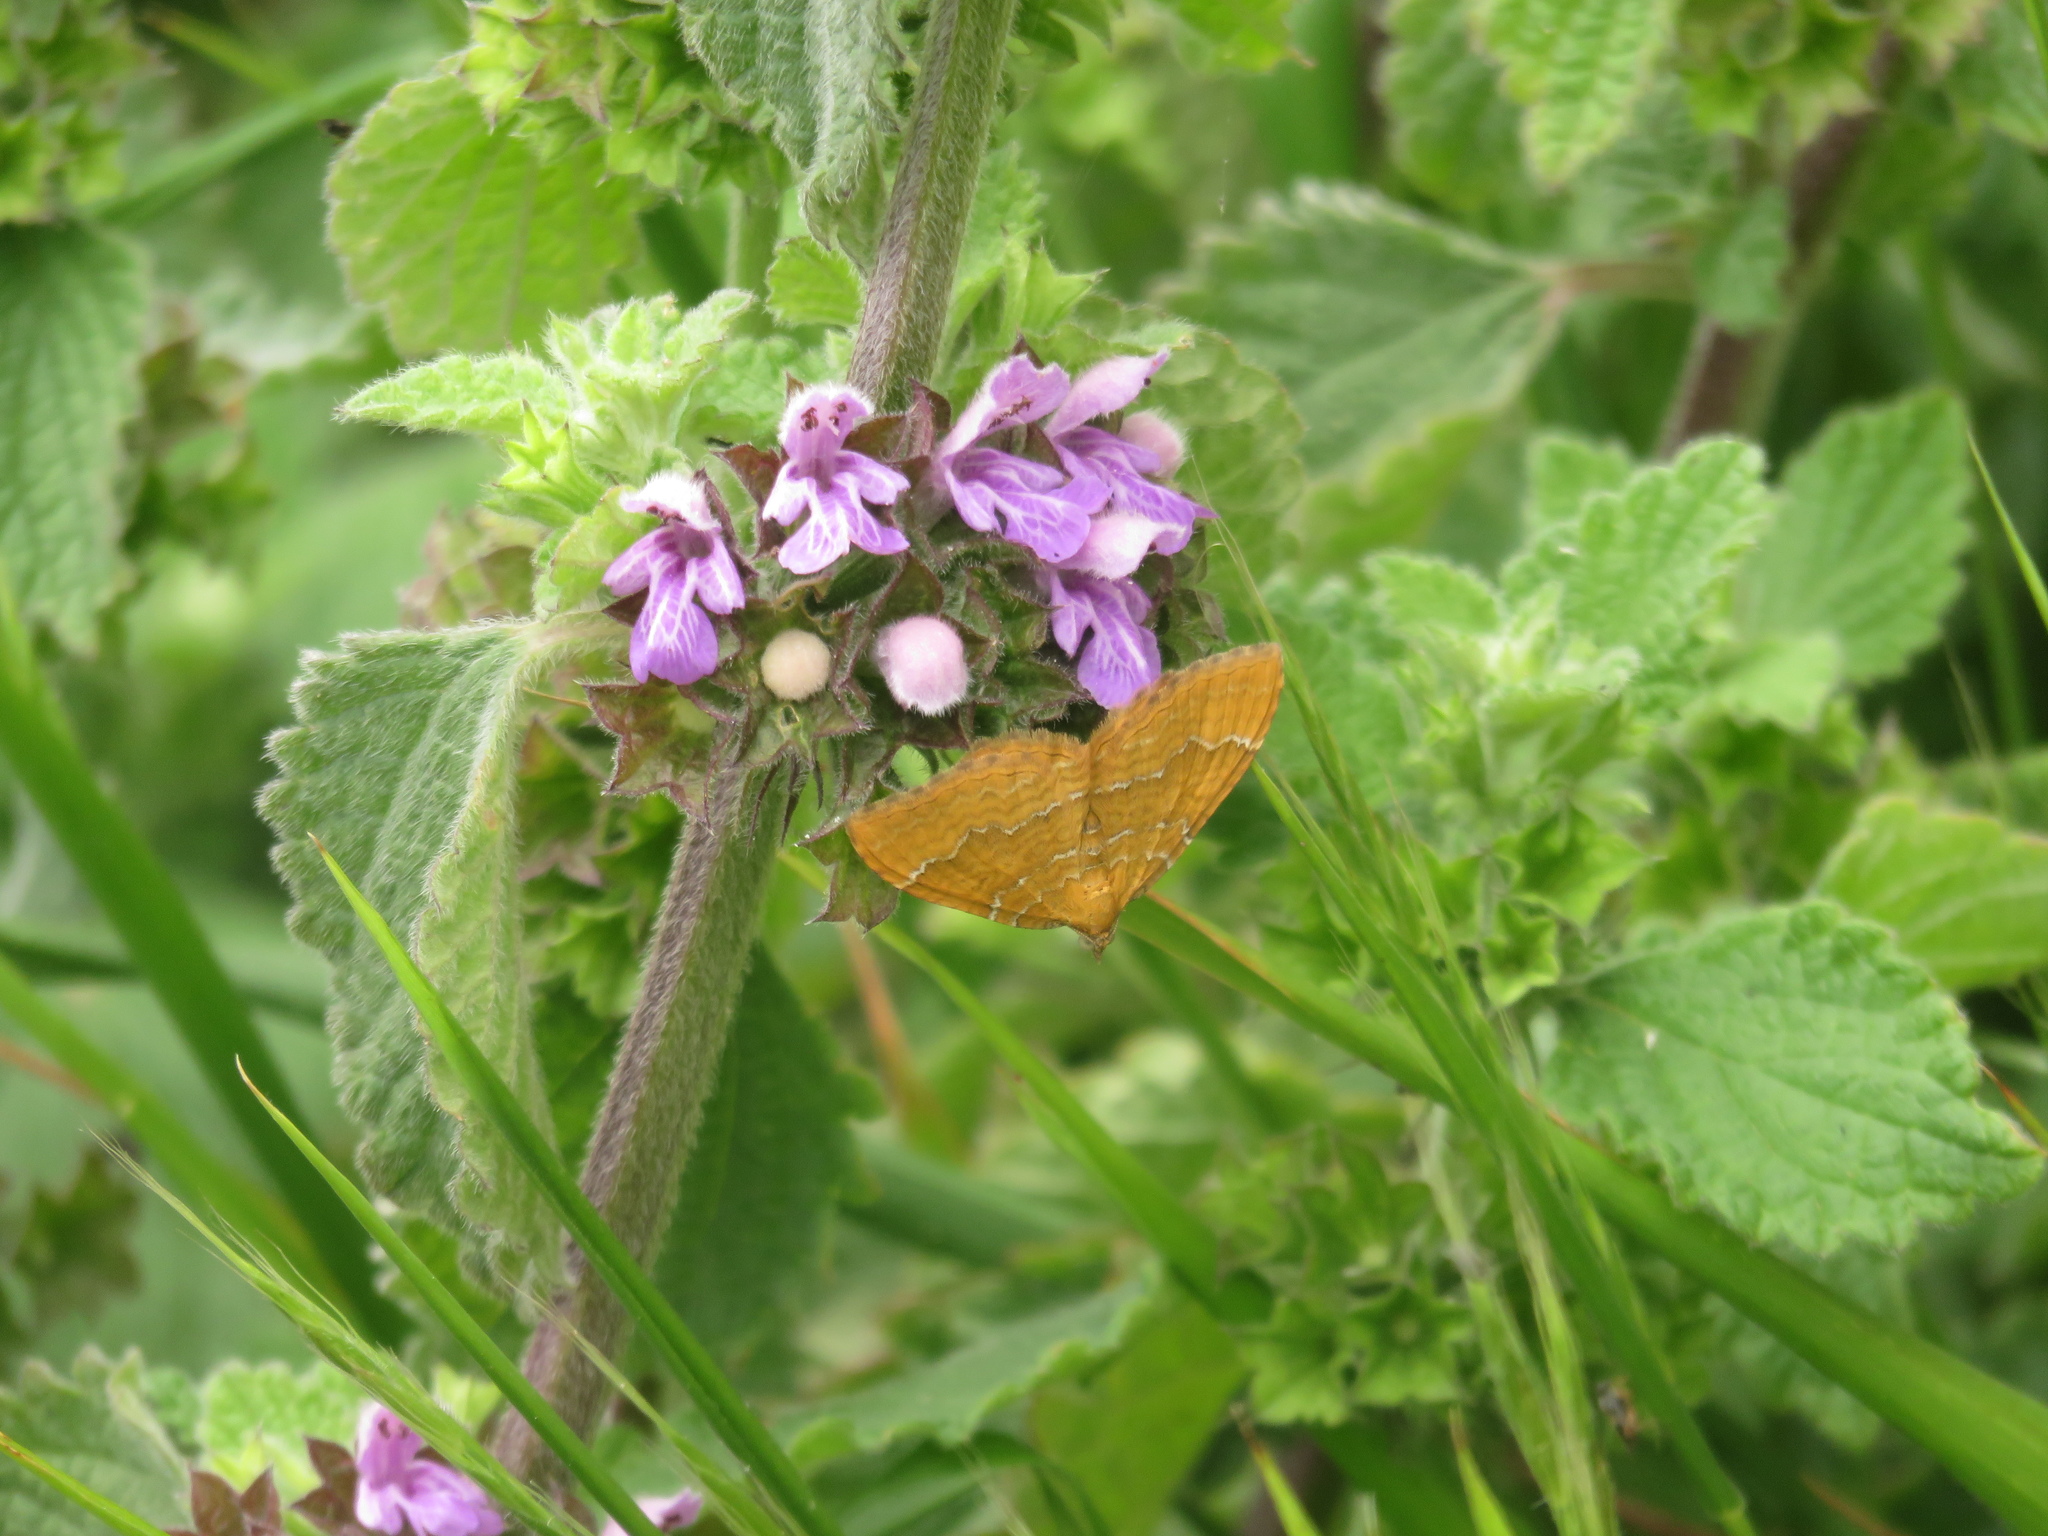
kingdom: Animalia
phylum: Arthropoda
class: Insecta
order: Lepidoptera
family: Geometridae
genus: Camptogramma
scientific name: Camptogramma bilineata
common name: Yellow shell
